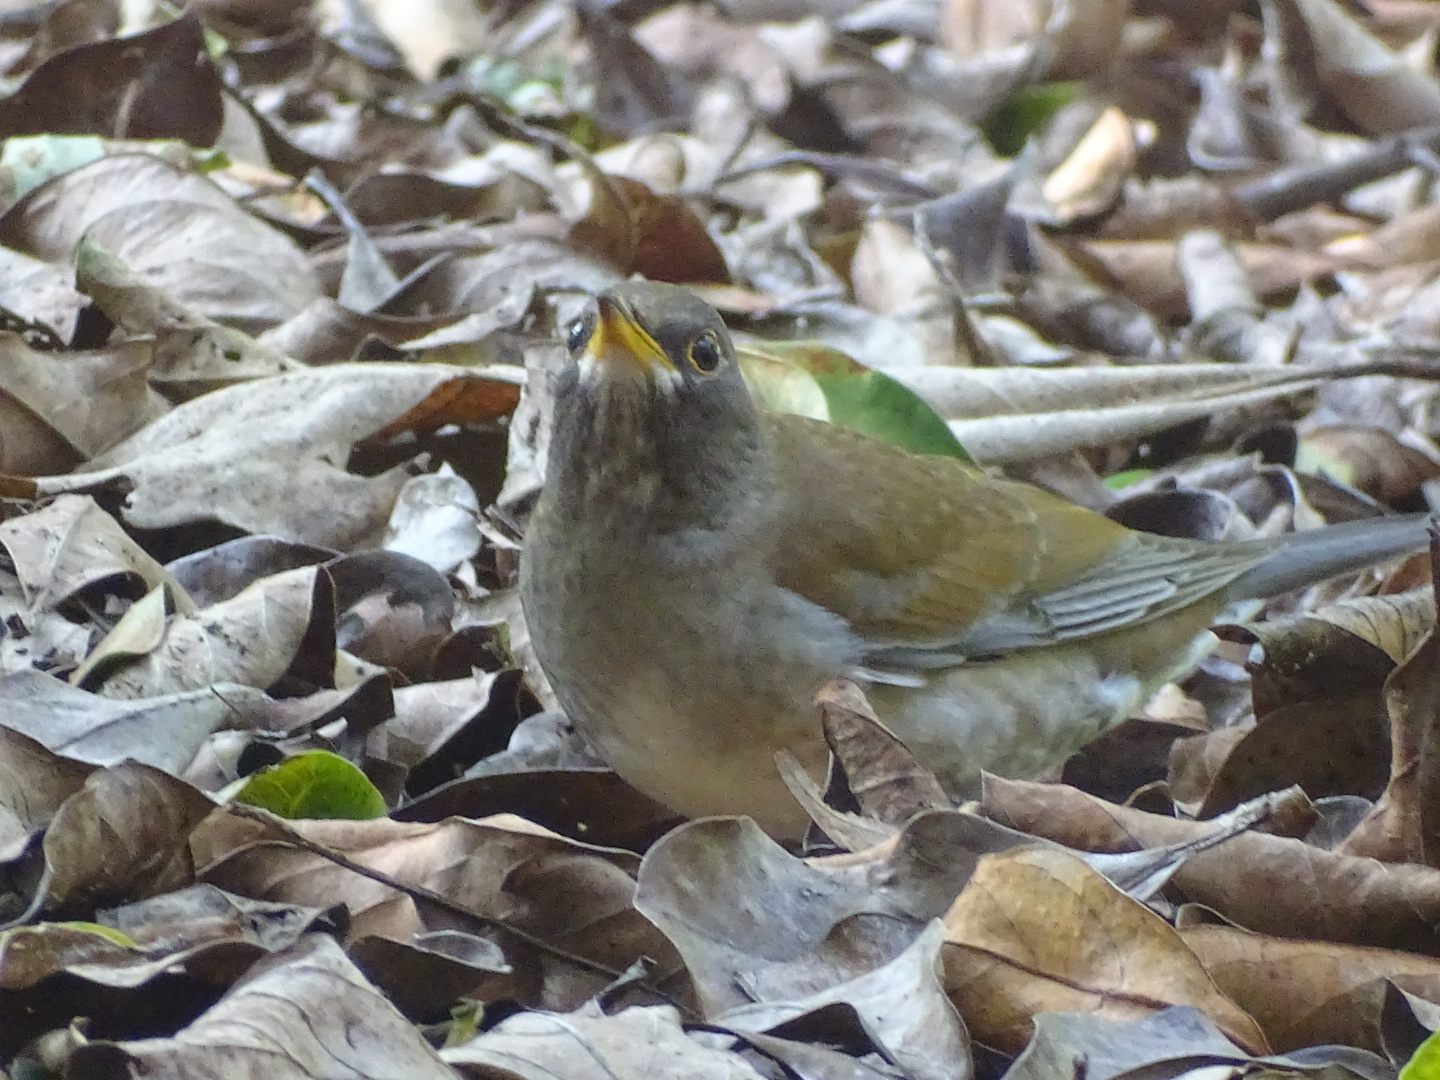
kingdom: Animalia
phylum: Chordata
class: Aves
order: Passeriformes
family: Turdidae
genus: Turdus
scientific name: Turdus pallidus
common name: Pale thrush
